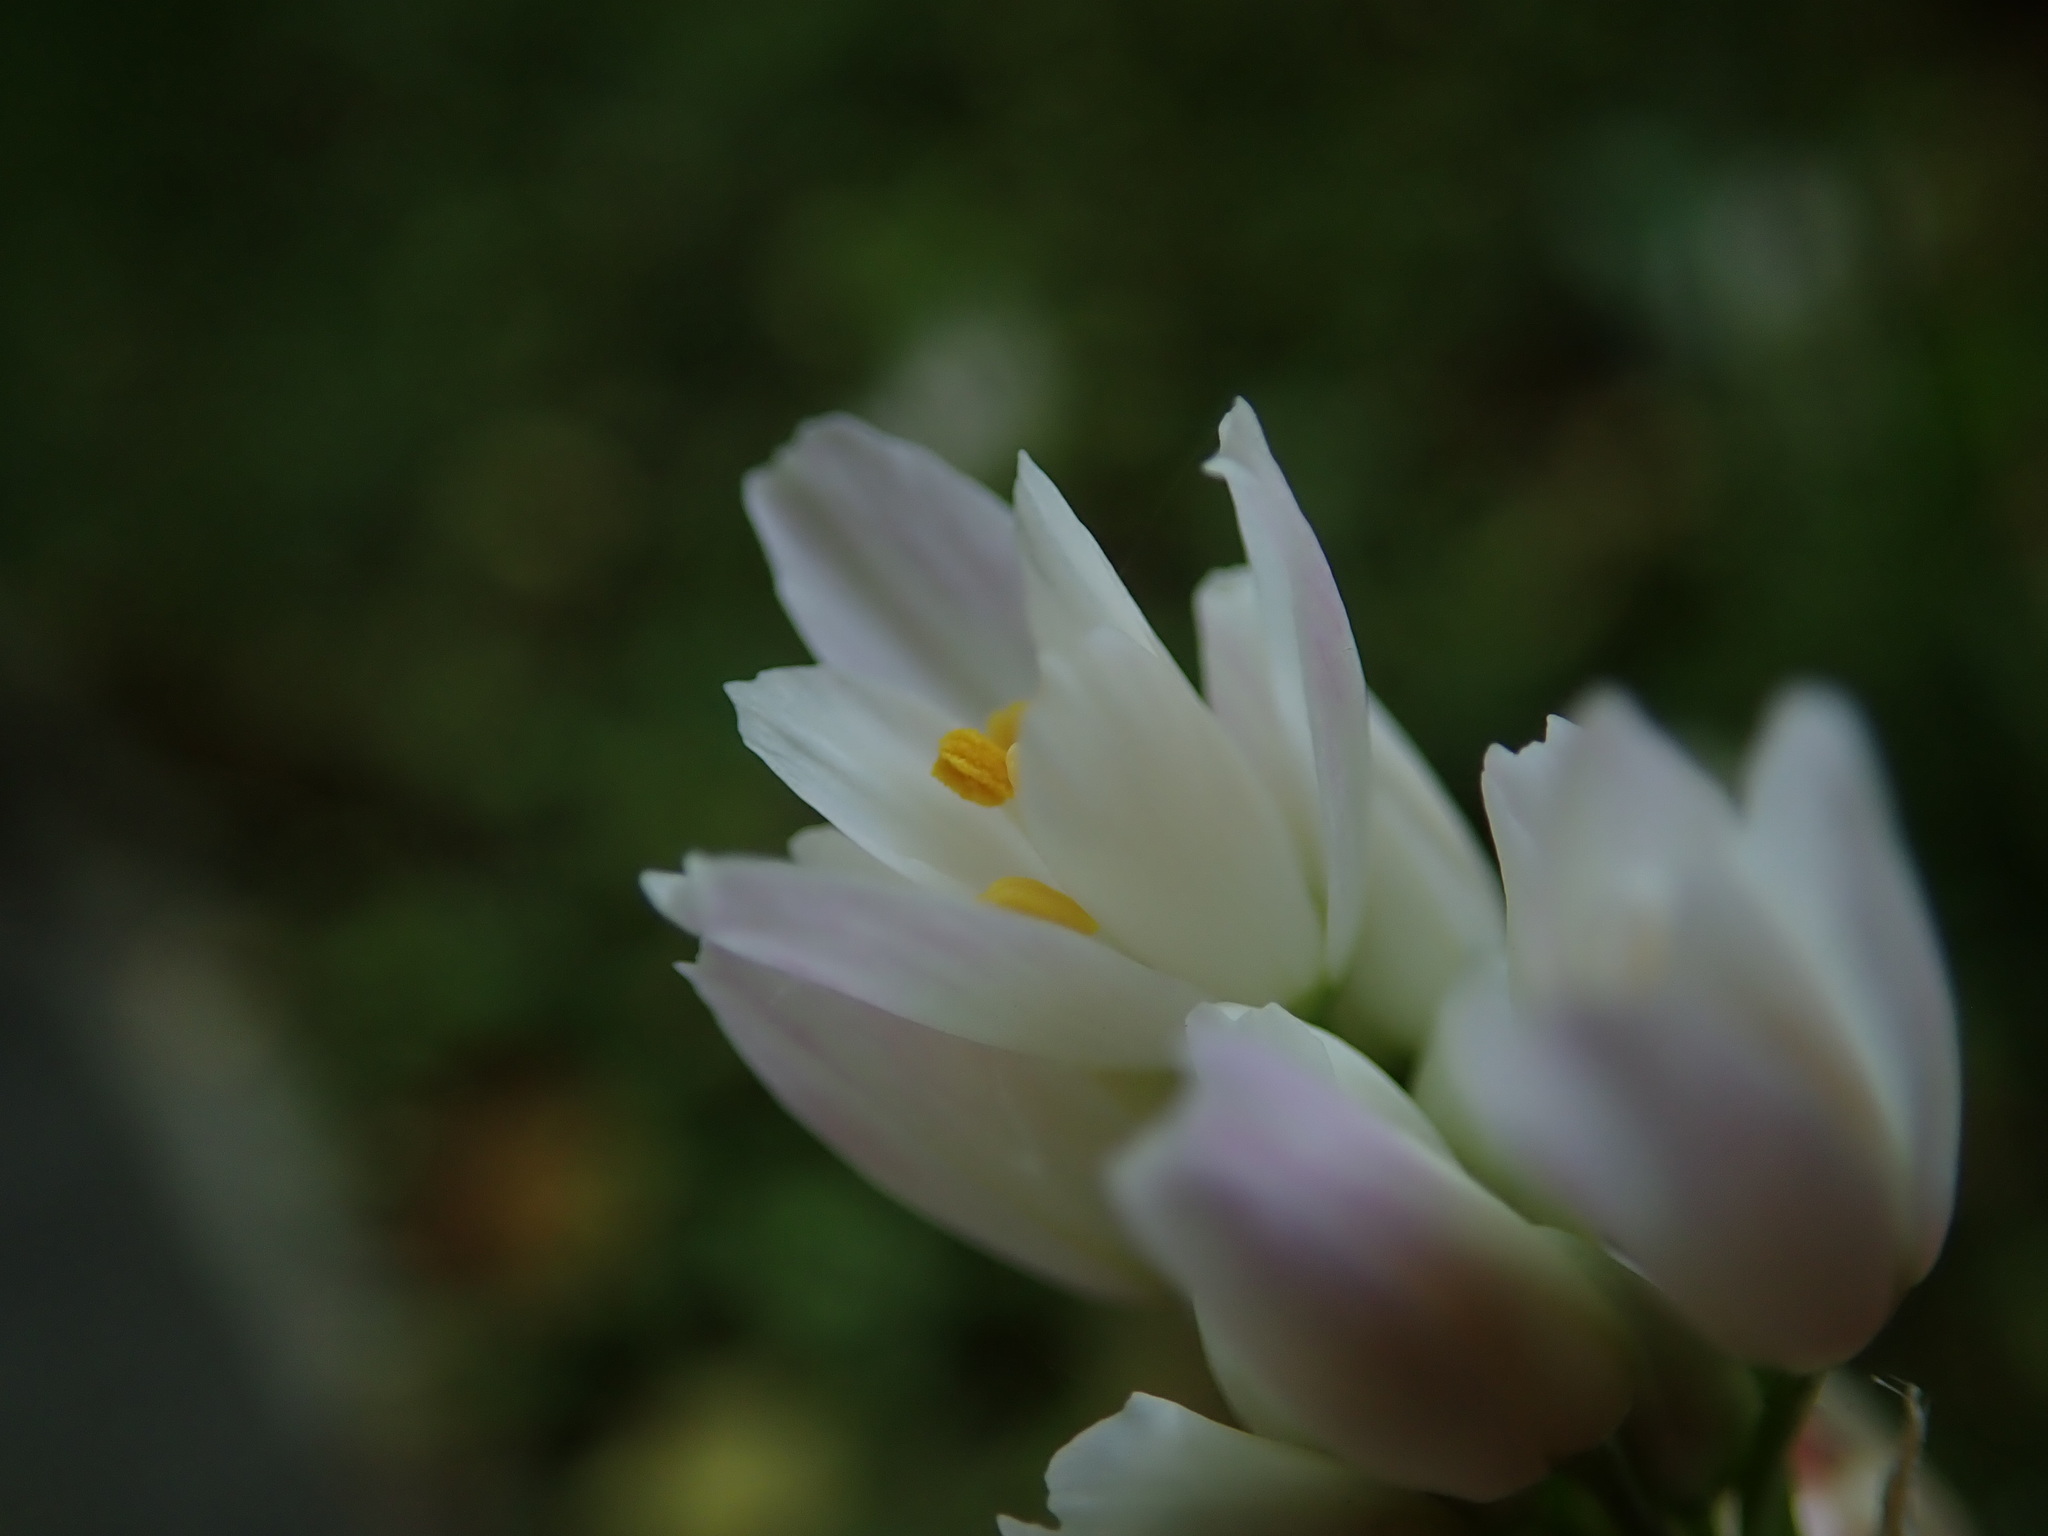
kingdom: Plantae
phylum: Tracheophyta
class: Liliopsida
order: Asparagales
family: Amaryllidaceae
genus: Allium
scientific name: Allium roseum
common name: Rosy garlic
